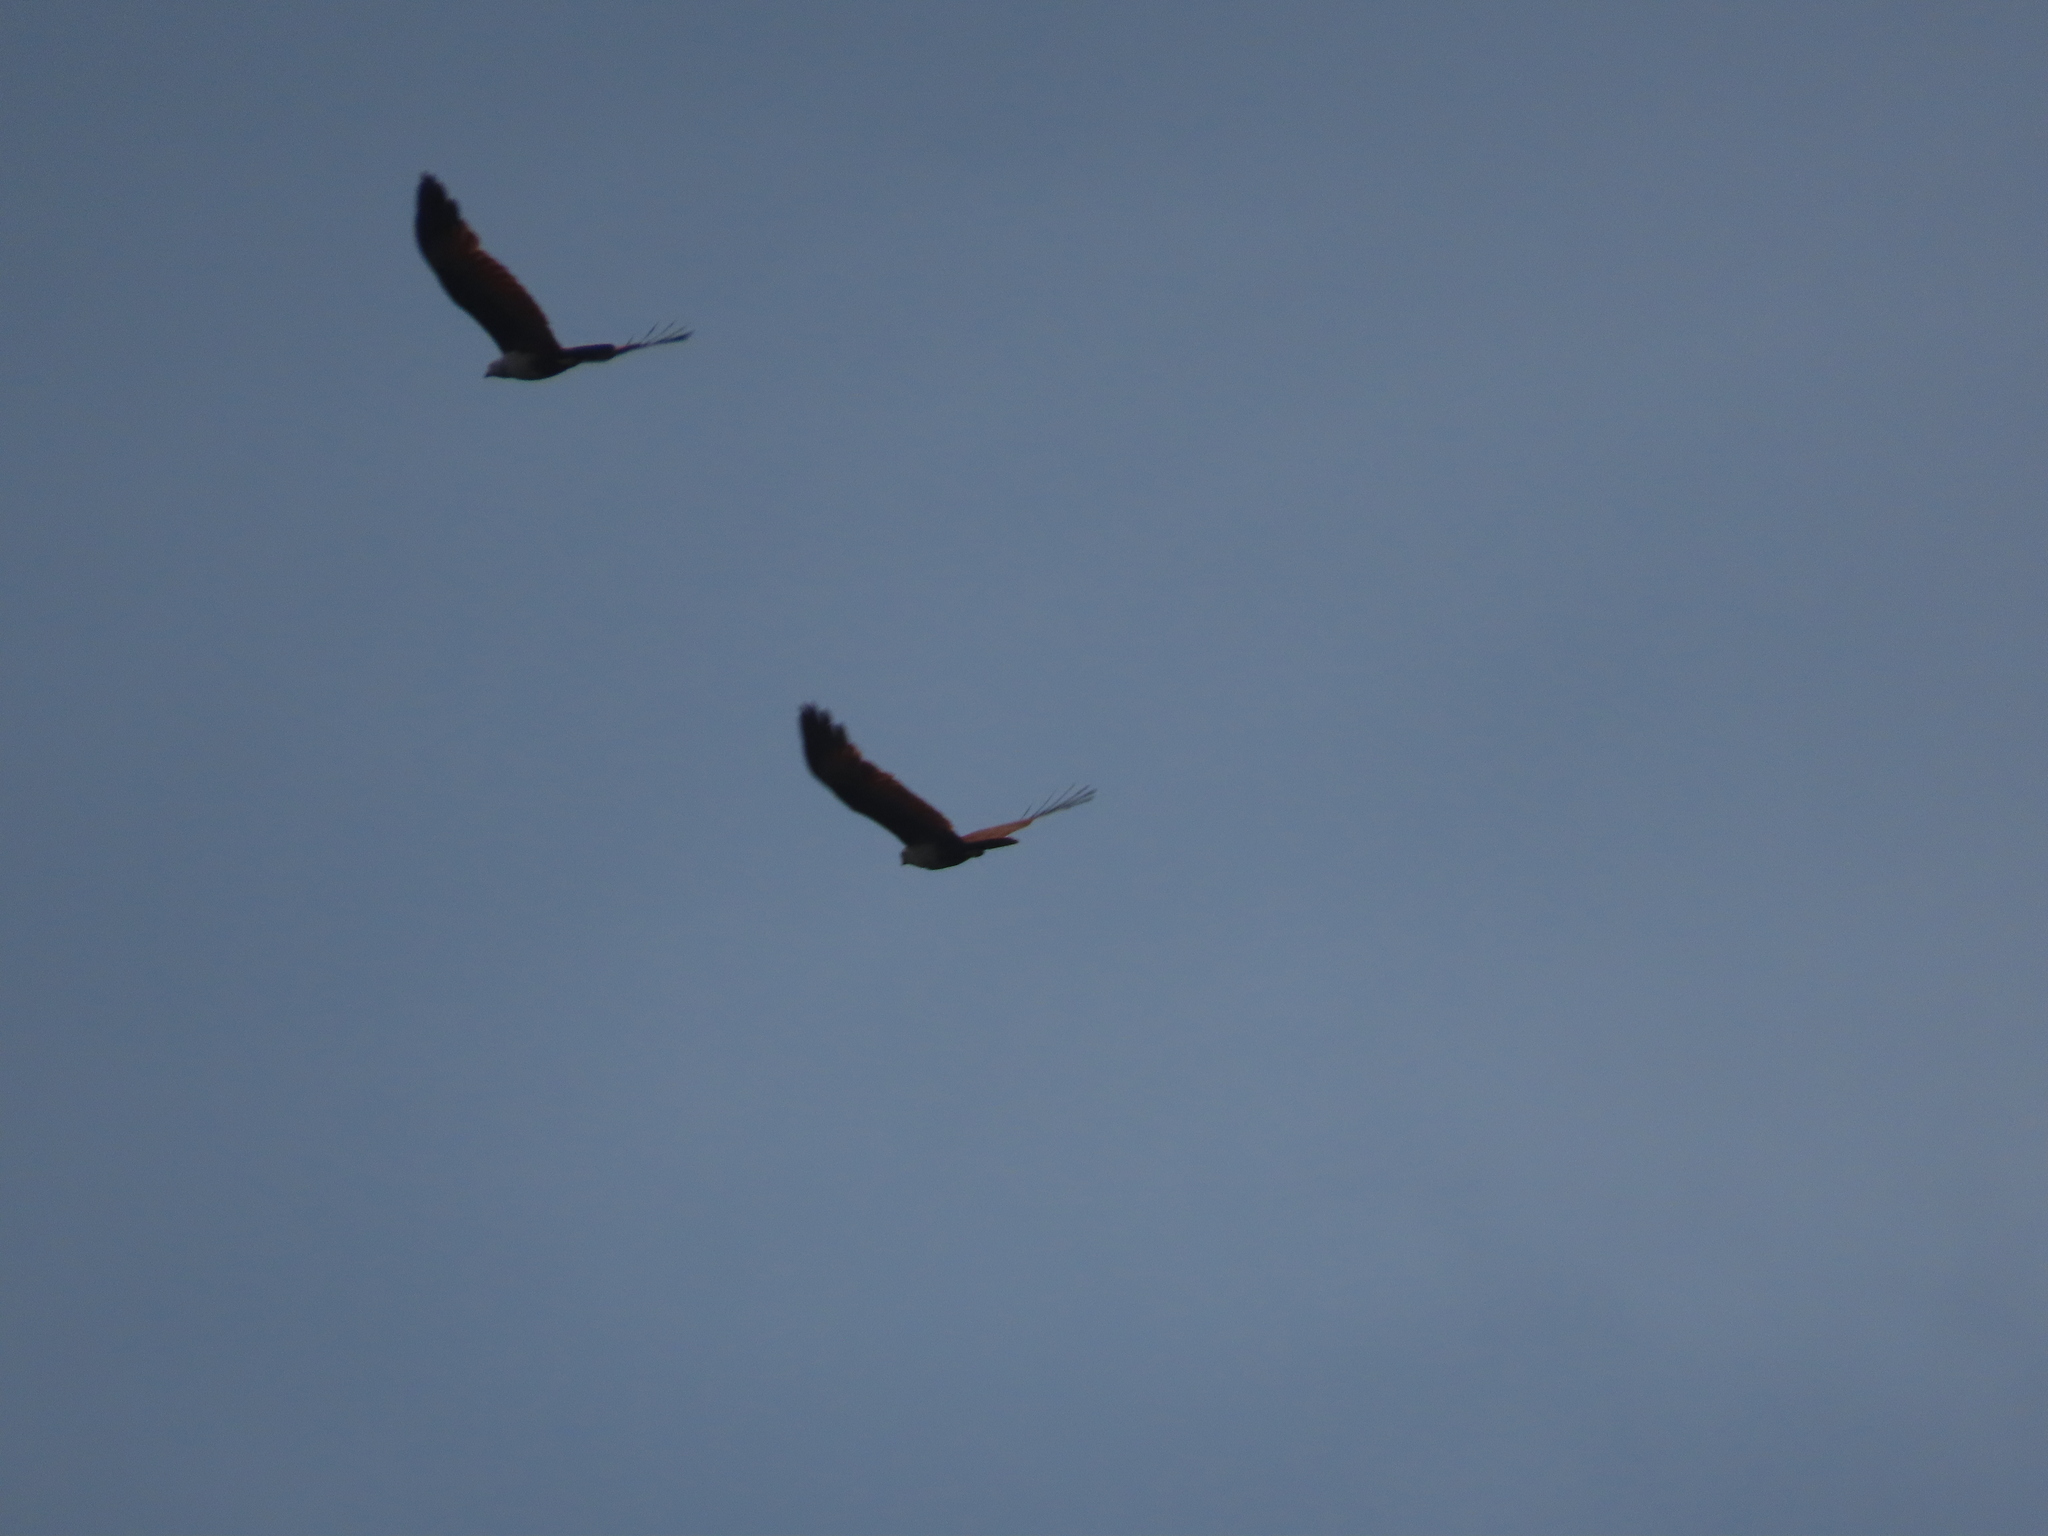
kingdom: Animalia
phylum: Chordata
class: Aves
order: Accipitriformes
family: Accipitridae
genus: Haliastur
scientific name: Haliastur indus
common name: Brahminy kite
